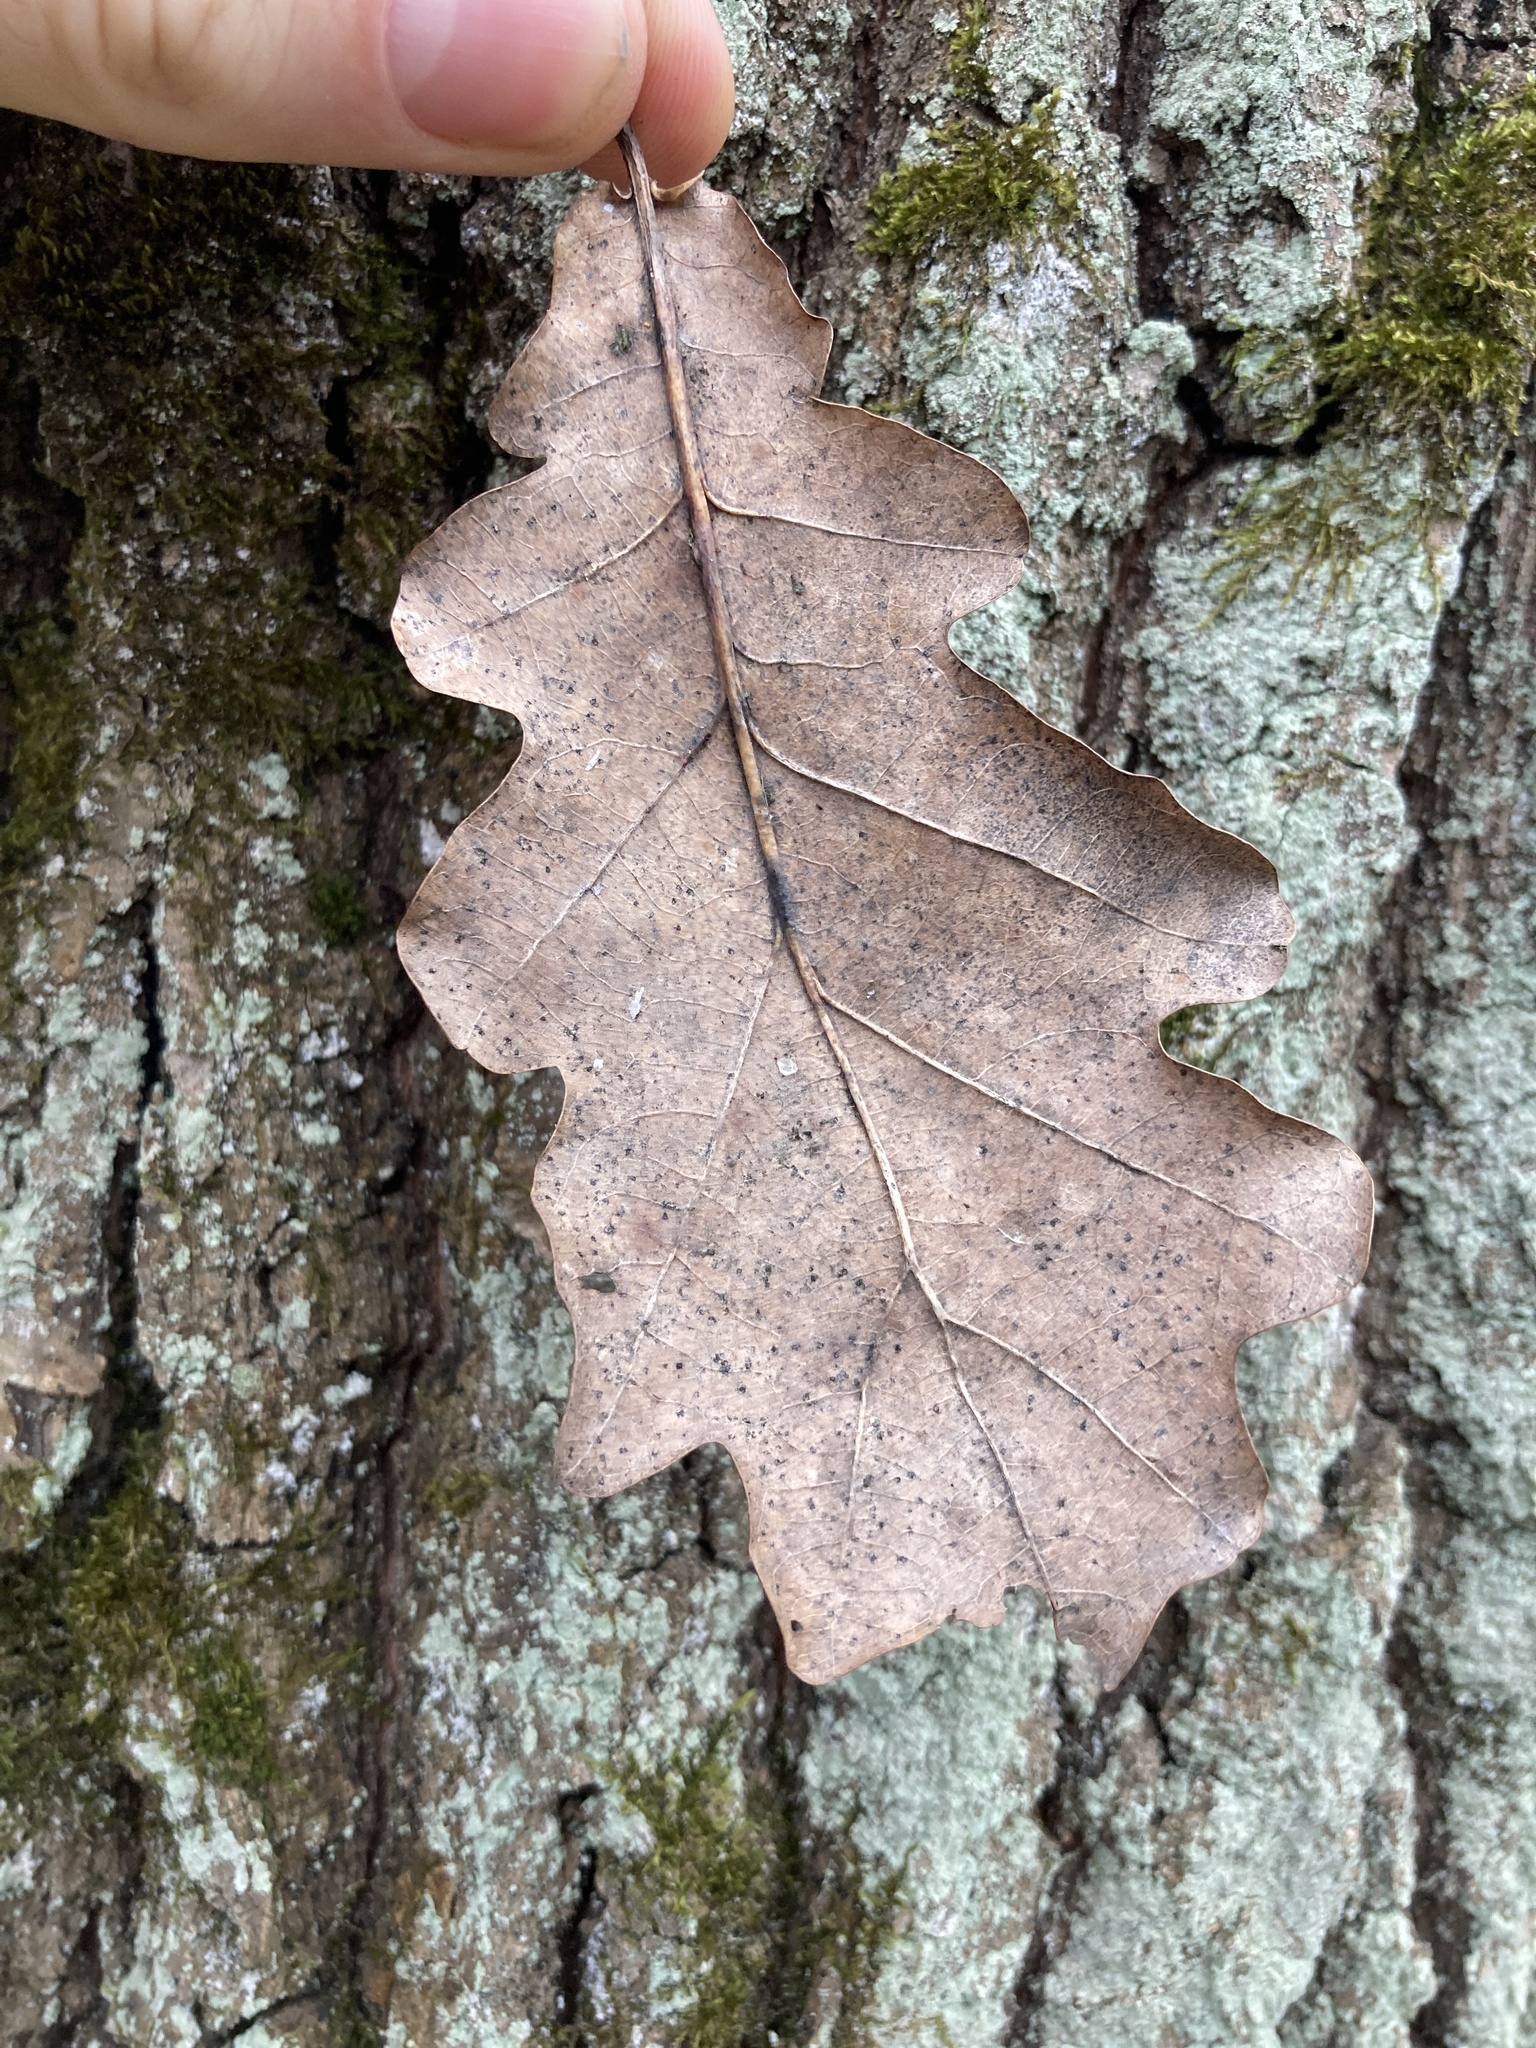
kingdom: Plantae
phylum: Tracheophyta
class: Magnoliopsida
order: Fagales
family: Fagaceae
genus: Quercus
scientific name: Quercus robur
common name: Pedunculate oak
